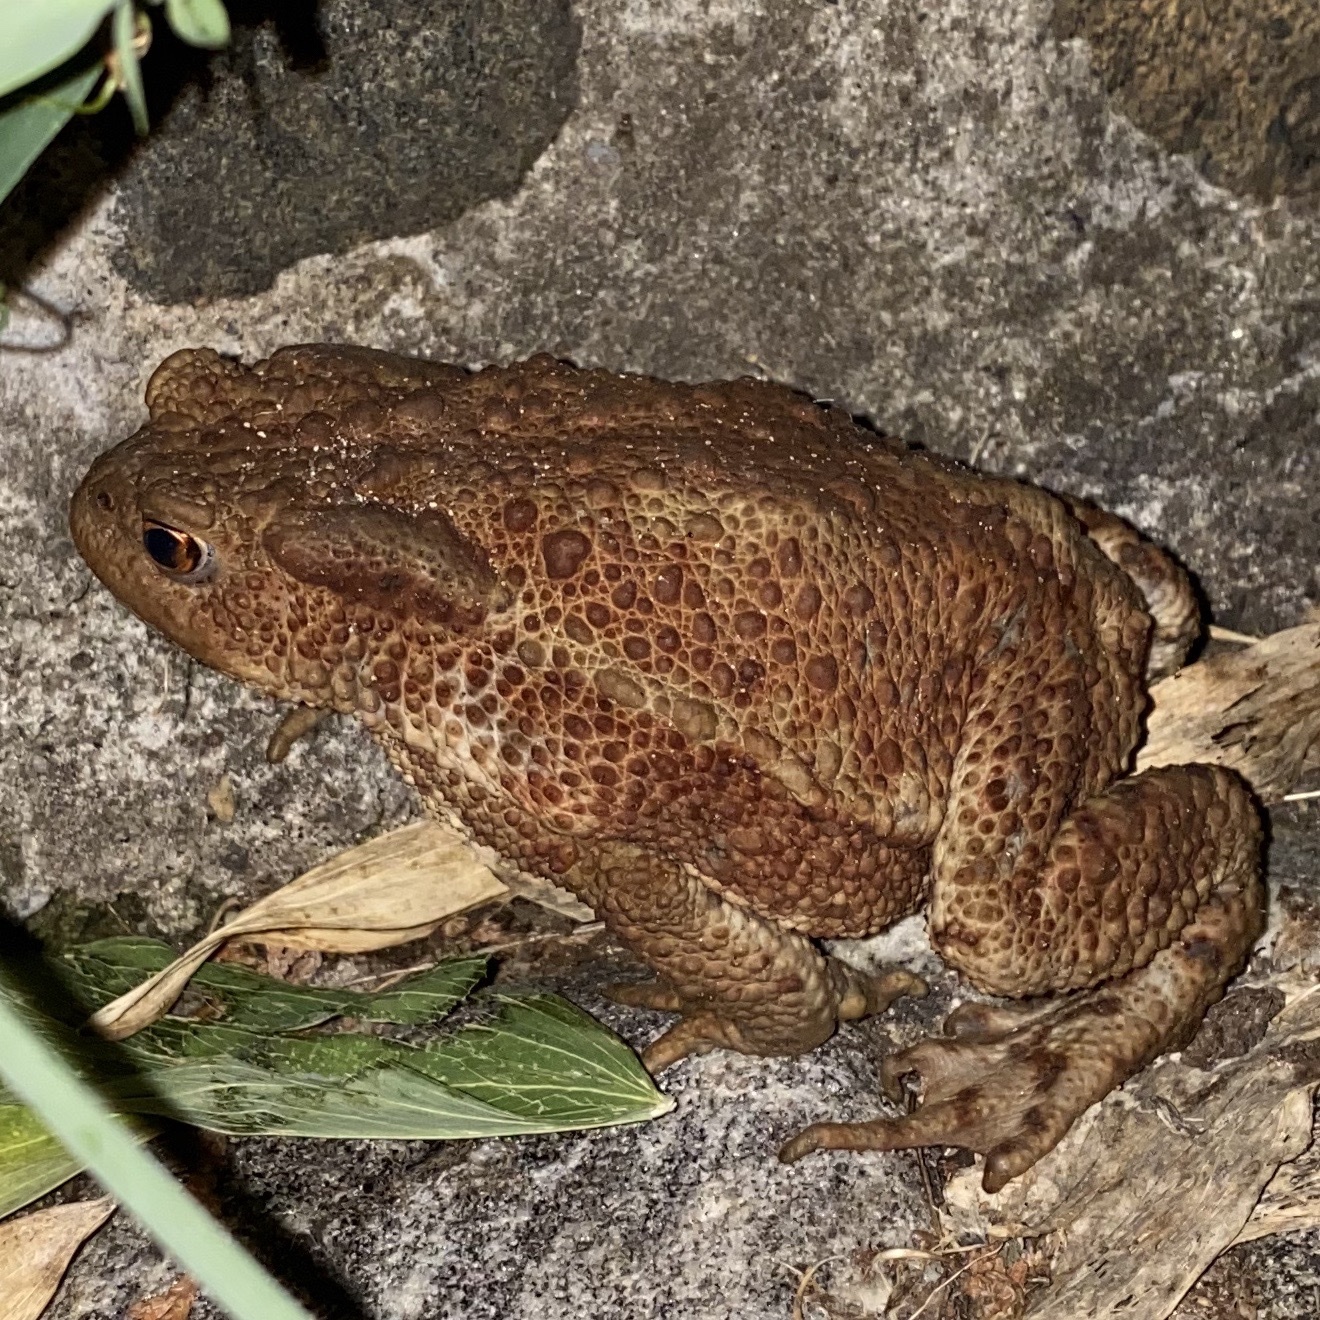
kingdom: Animalia
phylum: Chordata
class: Amphibia
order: Anura
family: Bufonidae
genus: Bufo
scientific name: Bufo bufo
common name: Common toad
